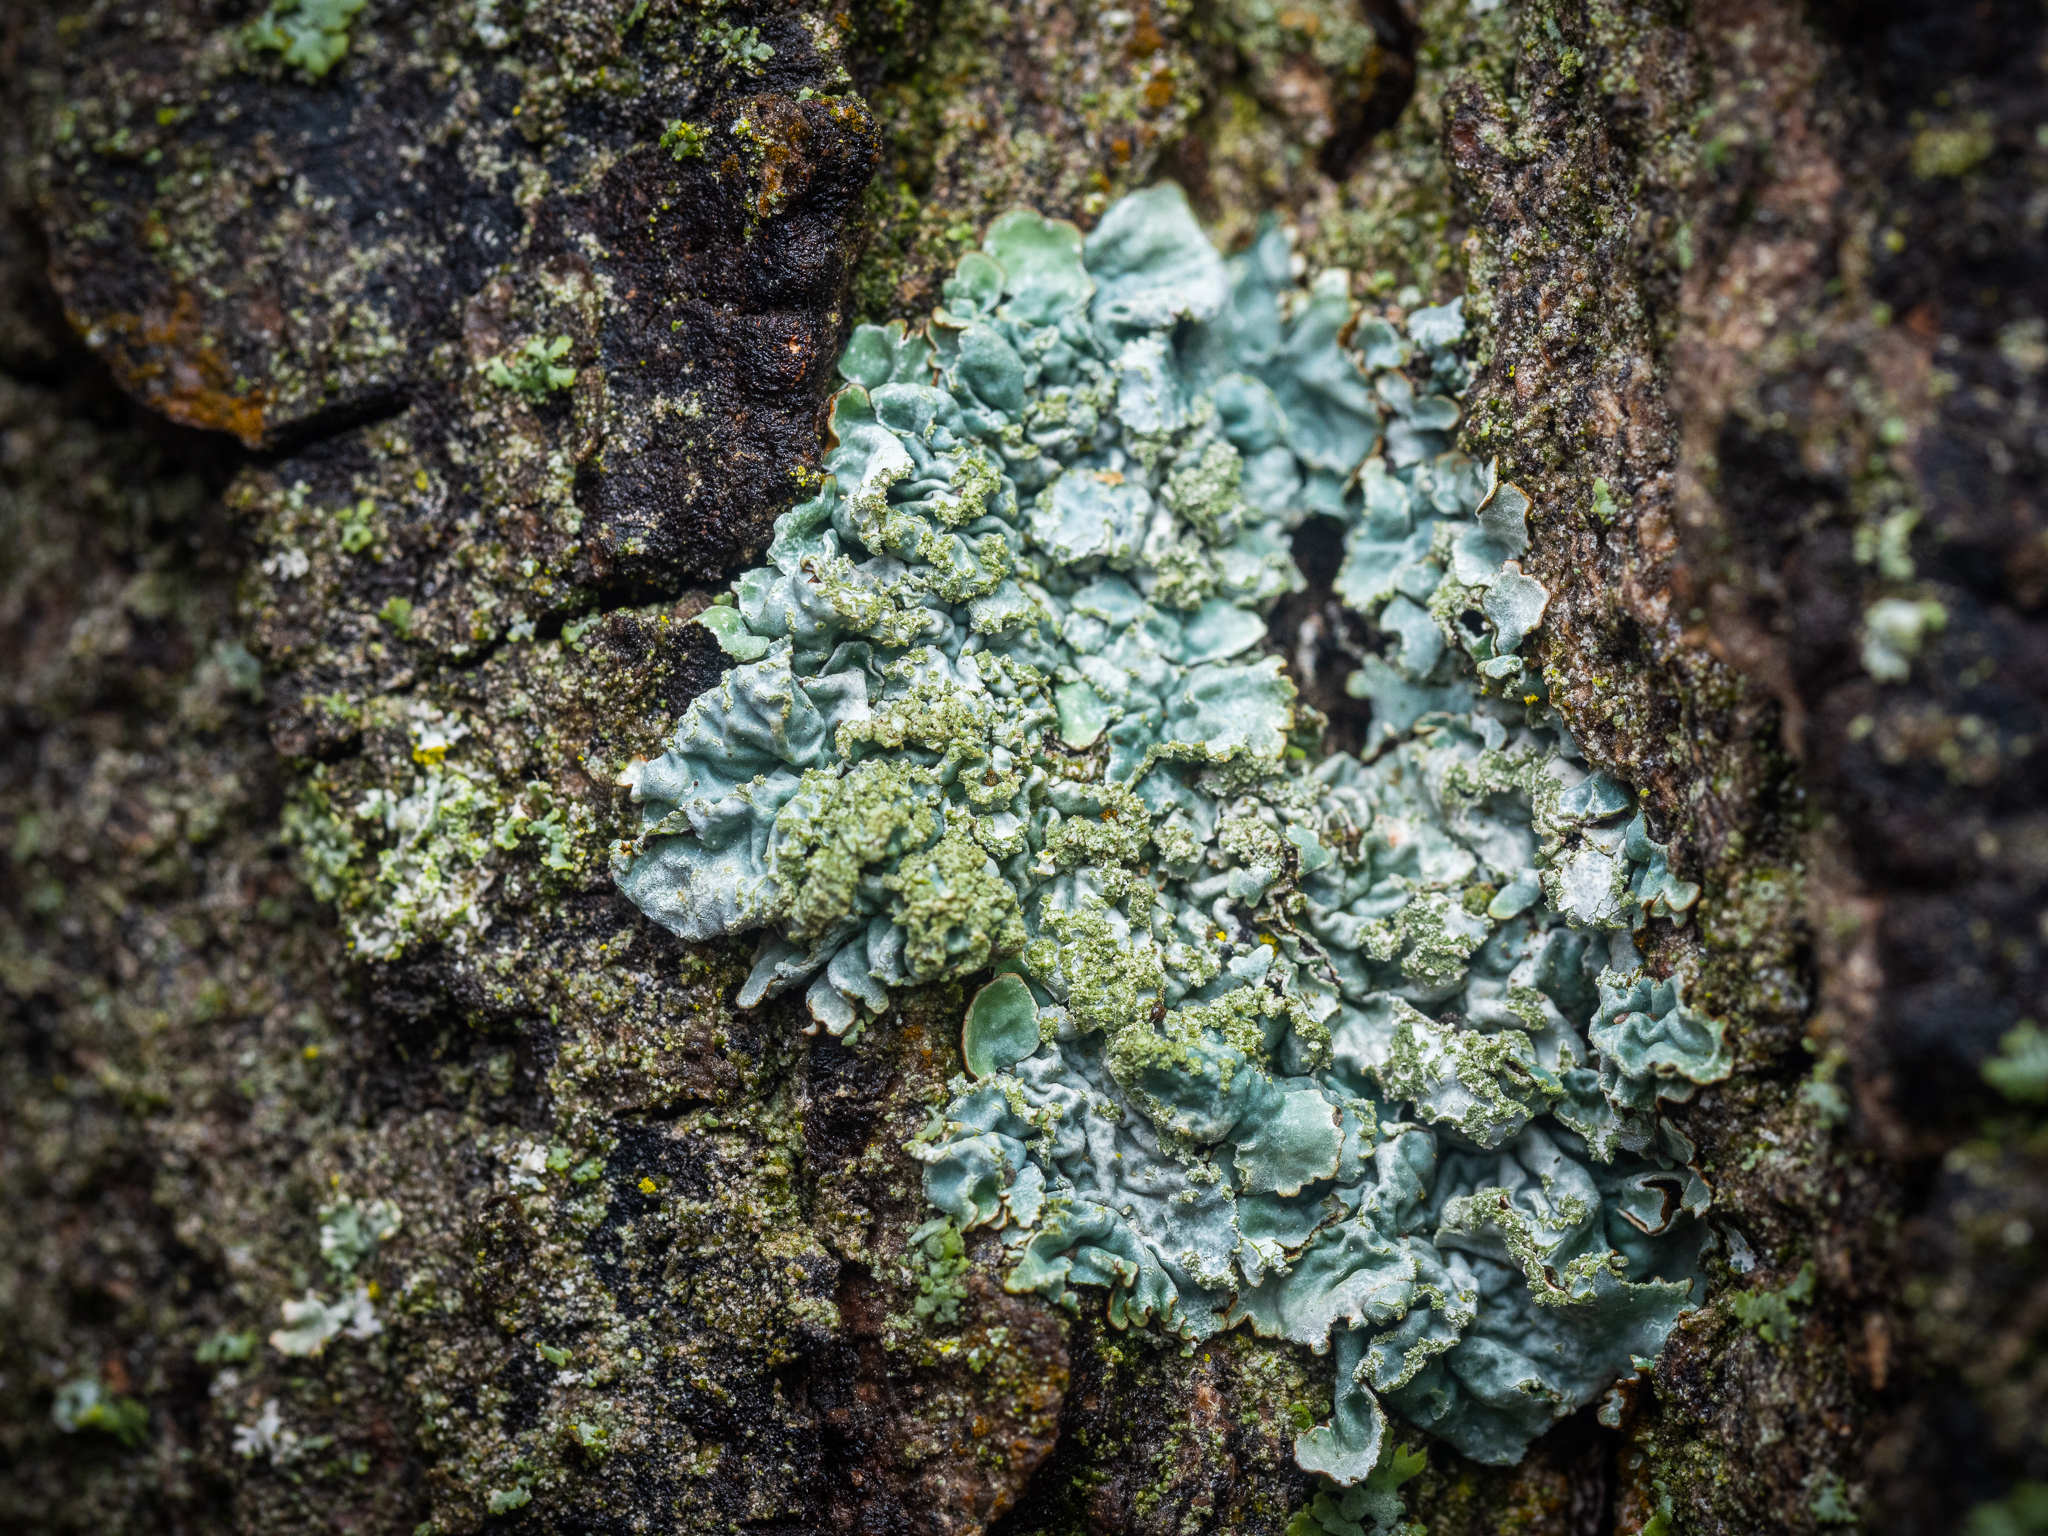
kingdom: Fungi
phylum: Ascomycota
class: Lecanoromycetes
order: Lecanorales
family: Parmeliaceae
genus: Parmelia
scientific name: Parmelia sulcata
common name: Netted shield lichen
